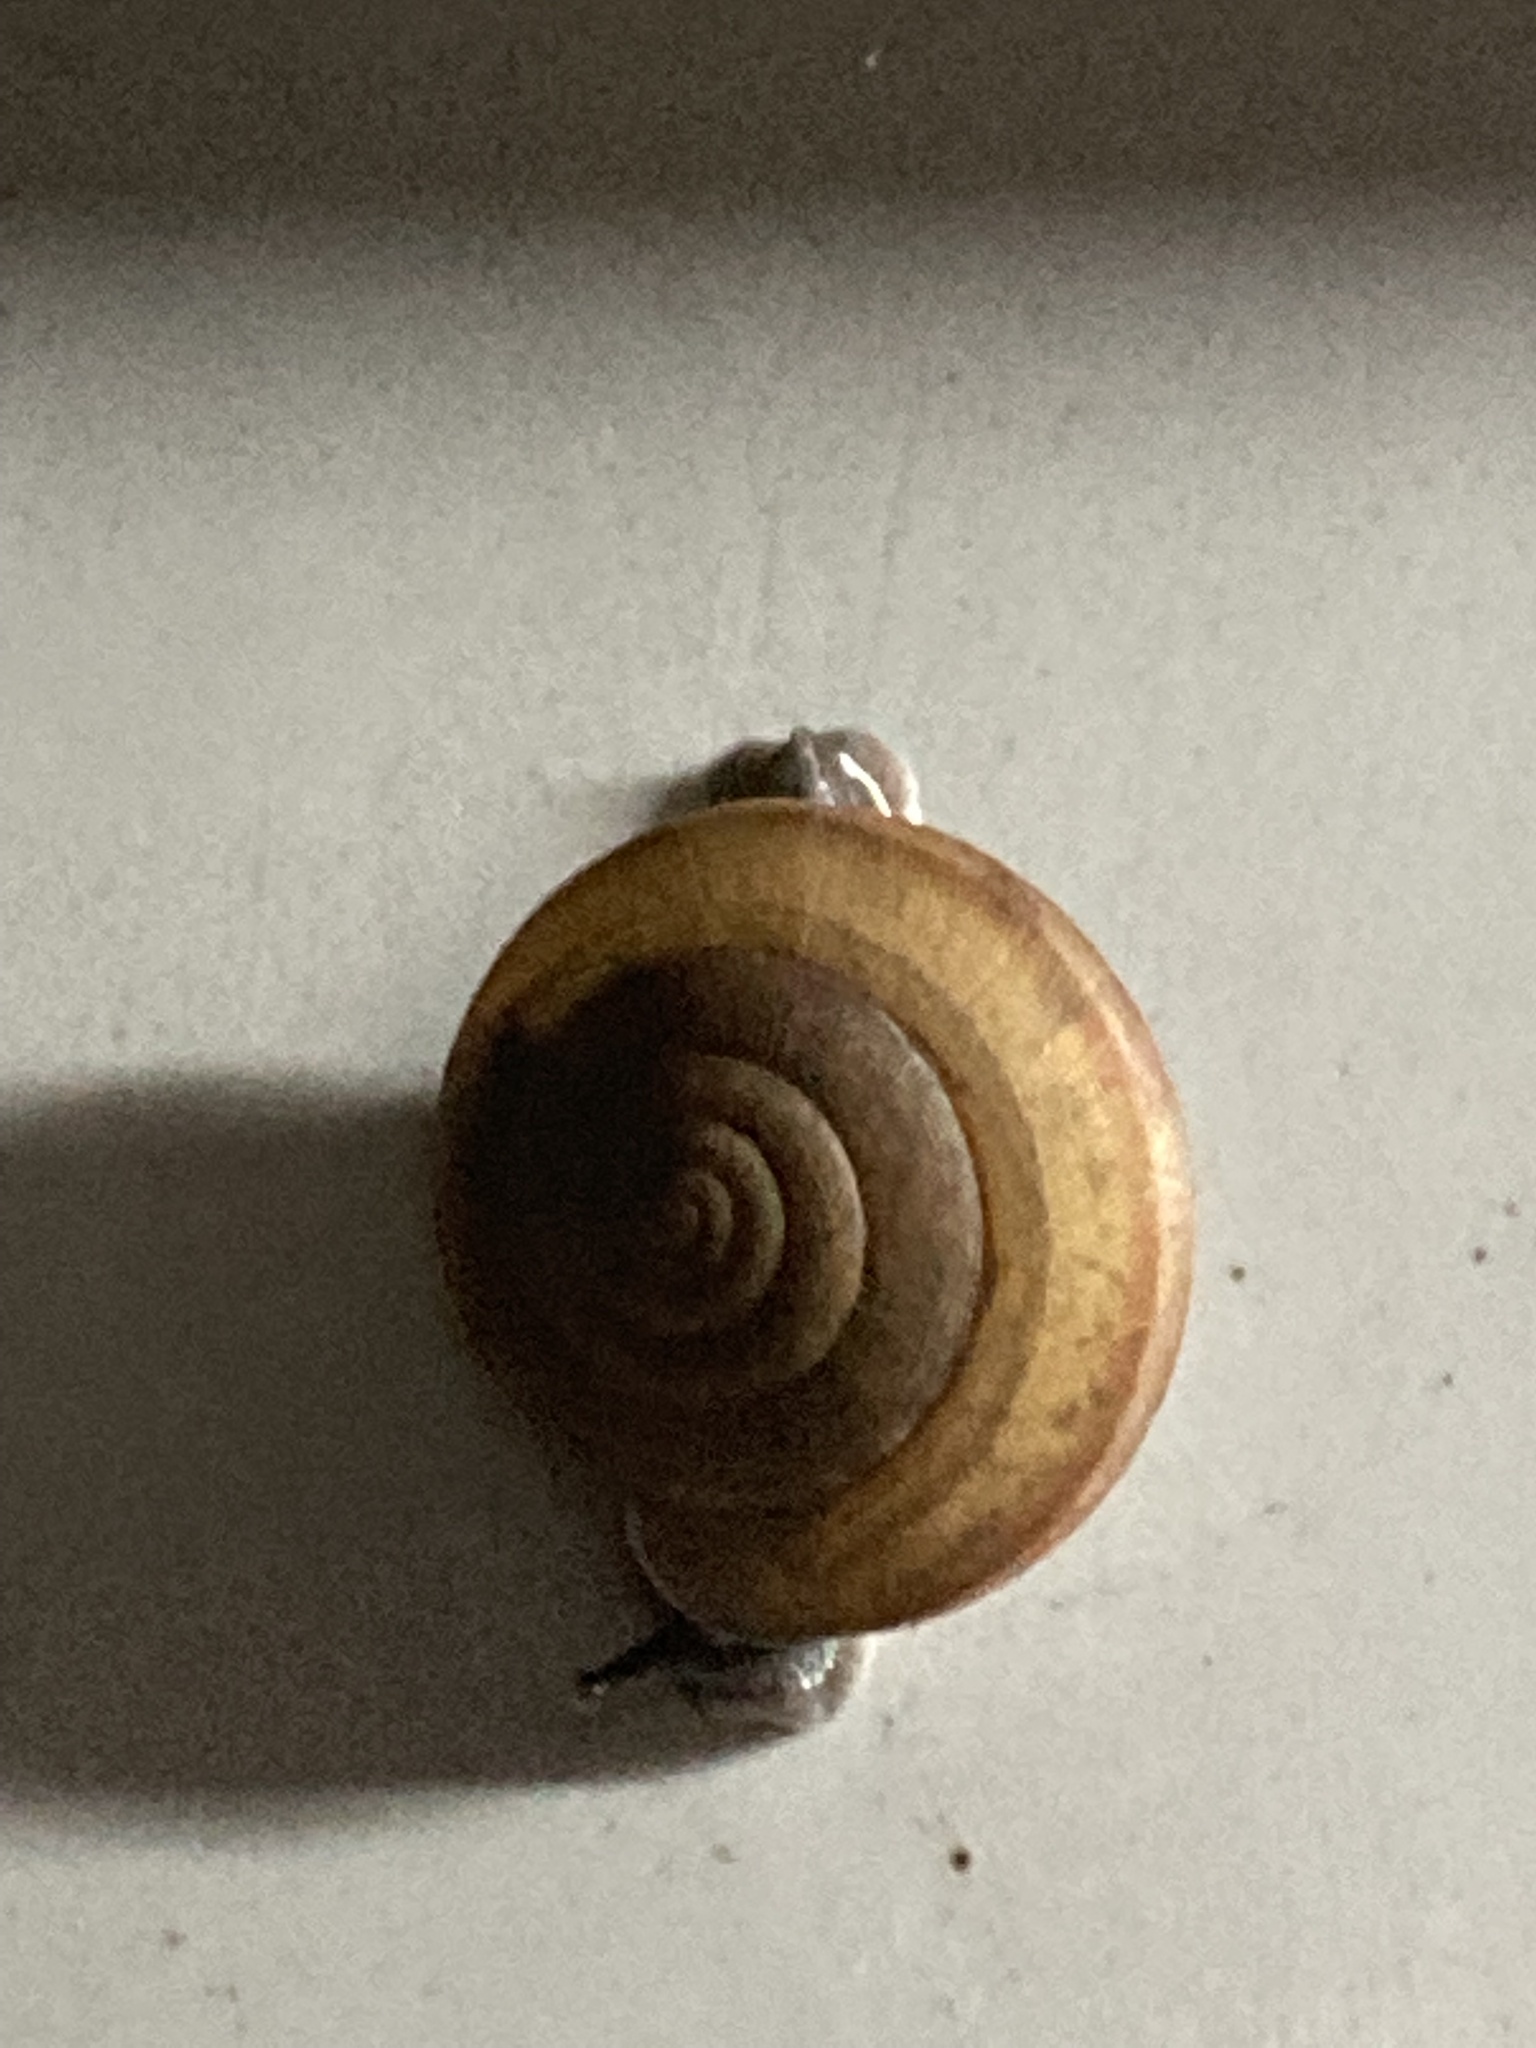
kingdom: Animalia
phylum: Mollusca
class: Gastropoda
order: Stylommatophora
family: Ariophantidae
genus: Sarika
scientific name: Sarika siamensis
